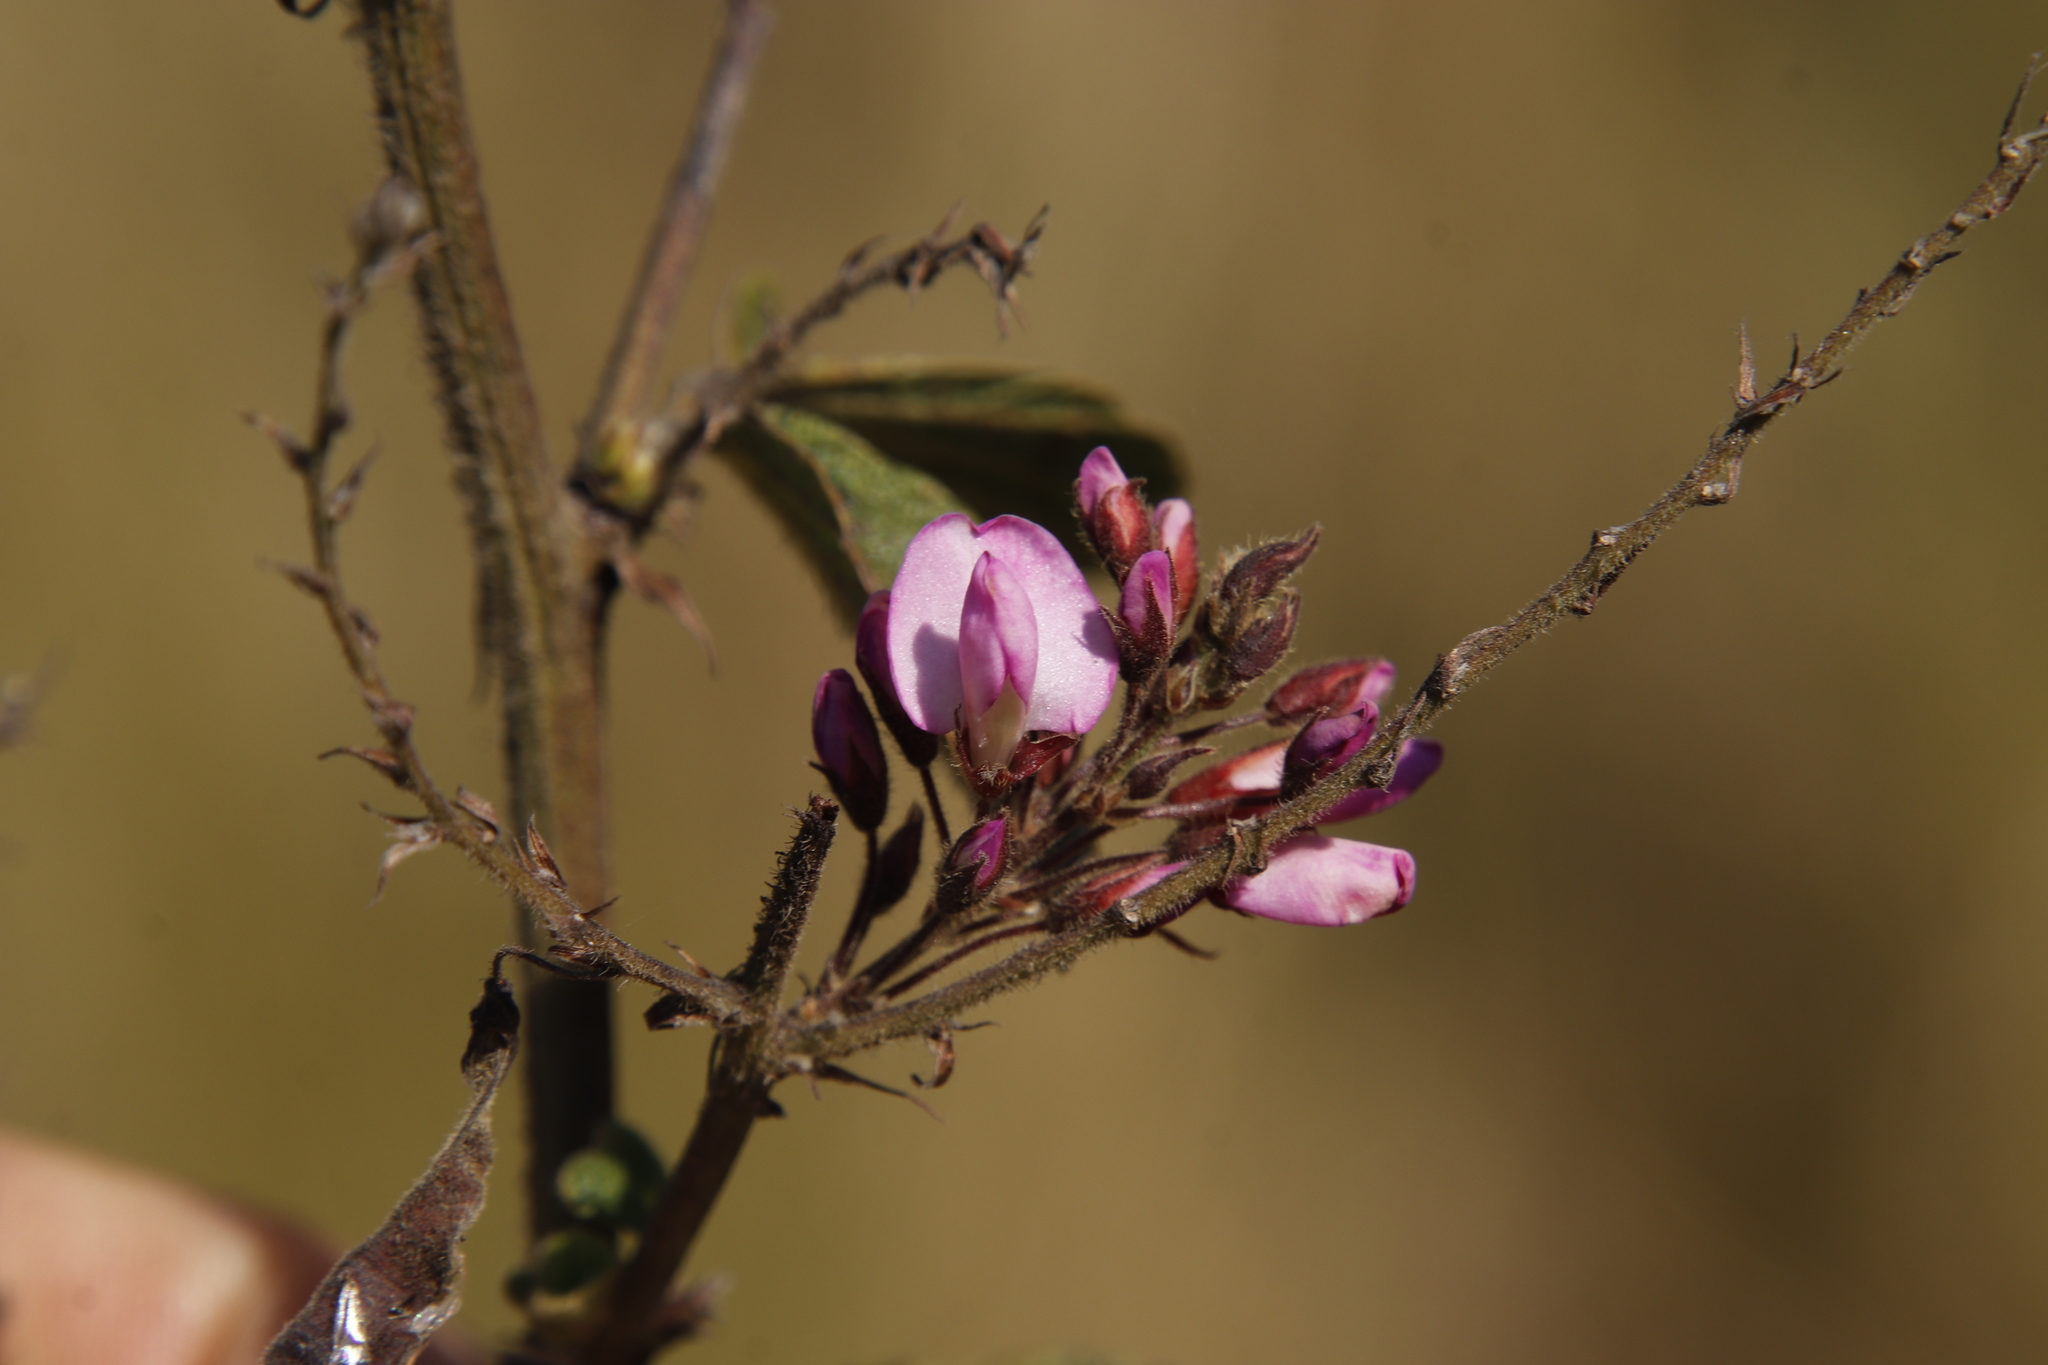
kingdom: Plantae
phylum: Tracheophyta
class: Magnoliopsida
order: Fabales
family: Fabaceae
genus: Pseudarthria
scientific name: Pseudarthria hookeri
